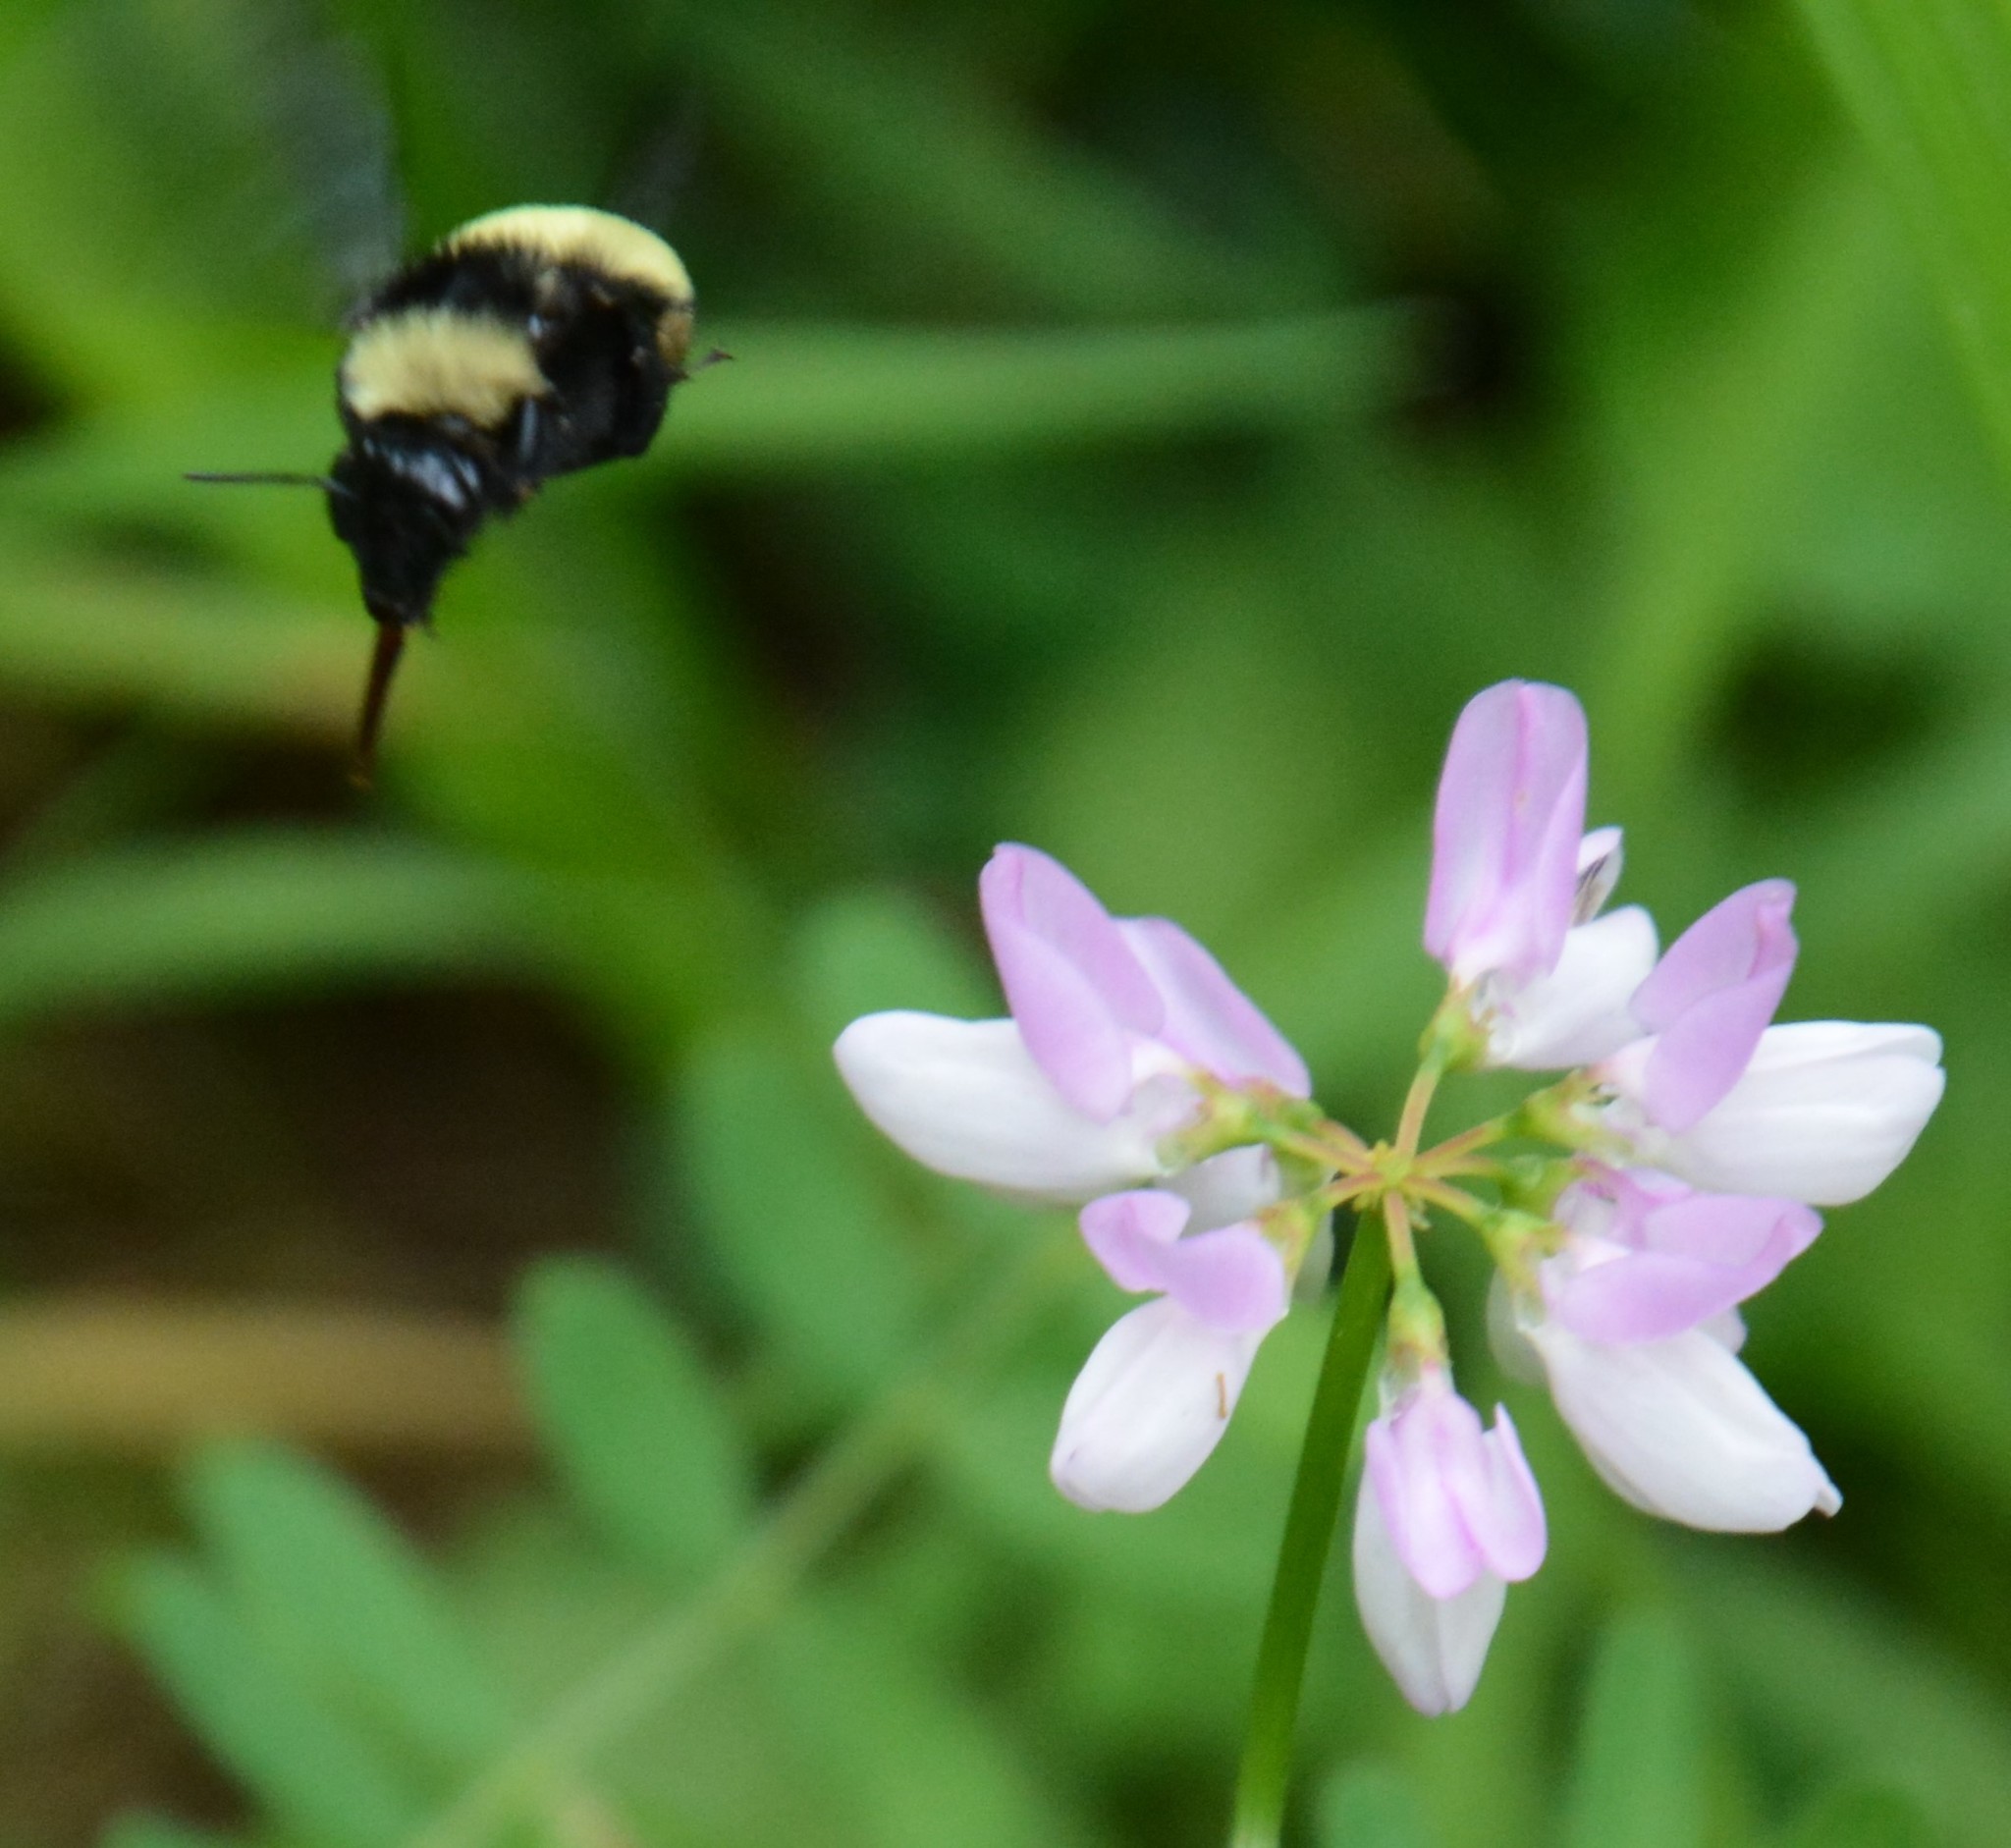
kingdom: Animalia
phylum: Arthropoda
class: Insecta
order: Hymenoptera
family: Apidae
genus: Bombus
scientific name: Bombus pensylvanicus
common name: Bumble bee
